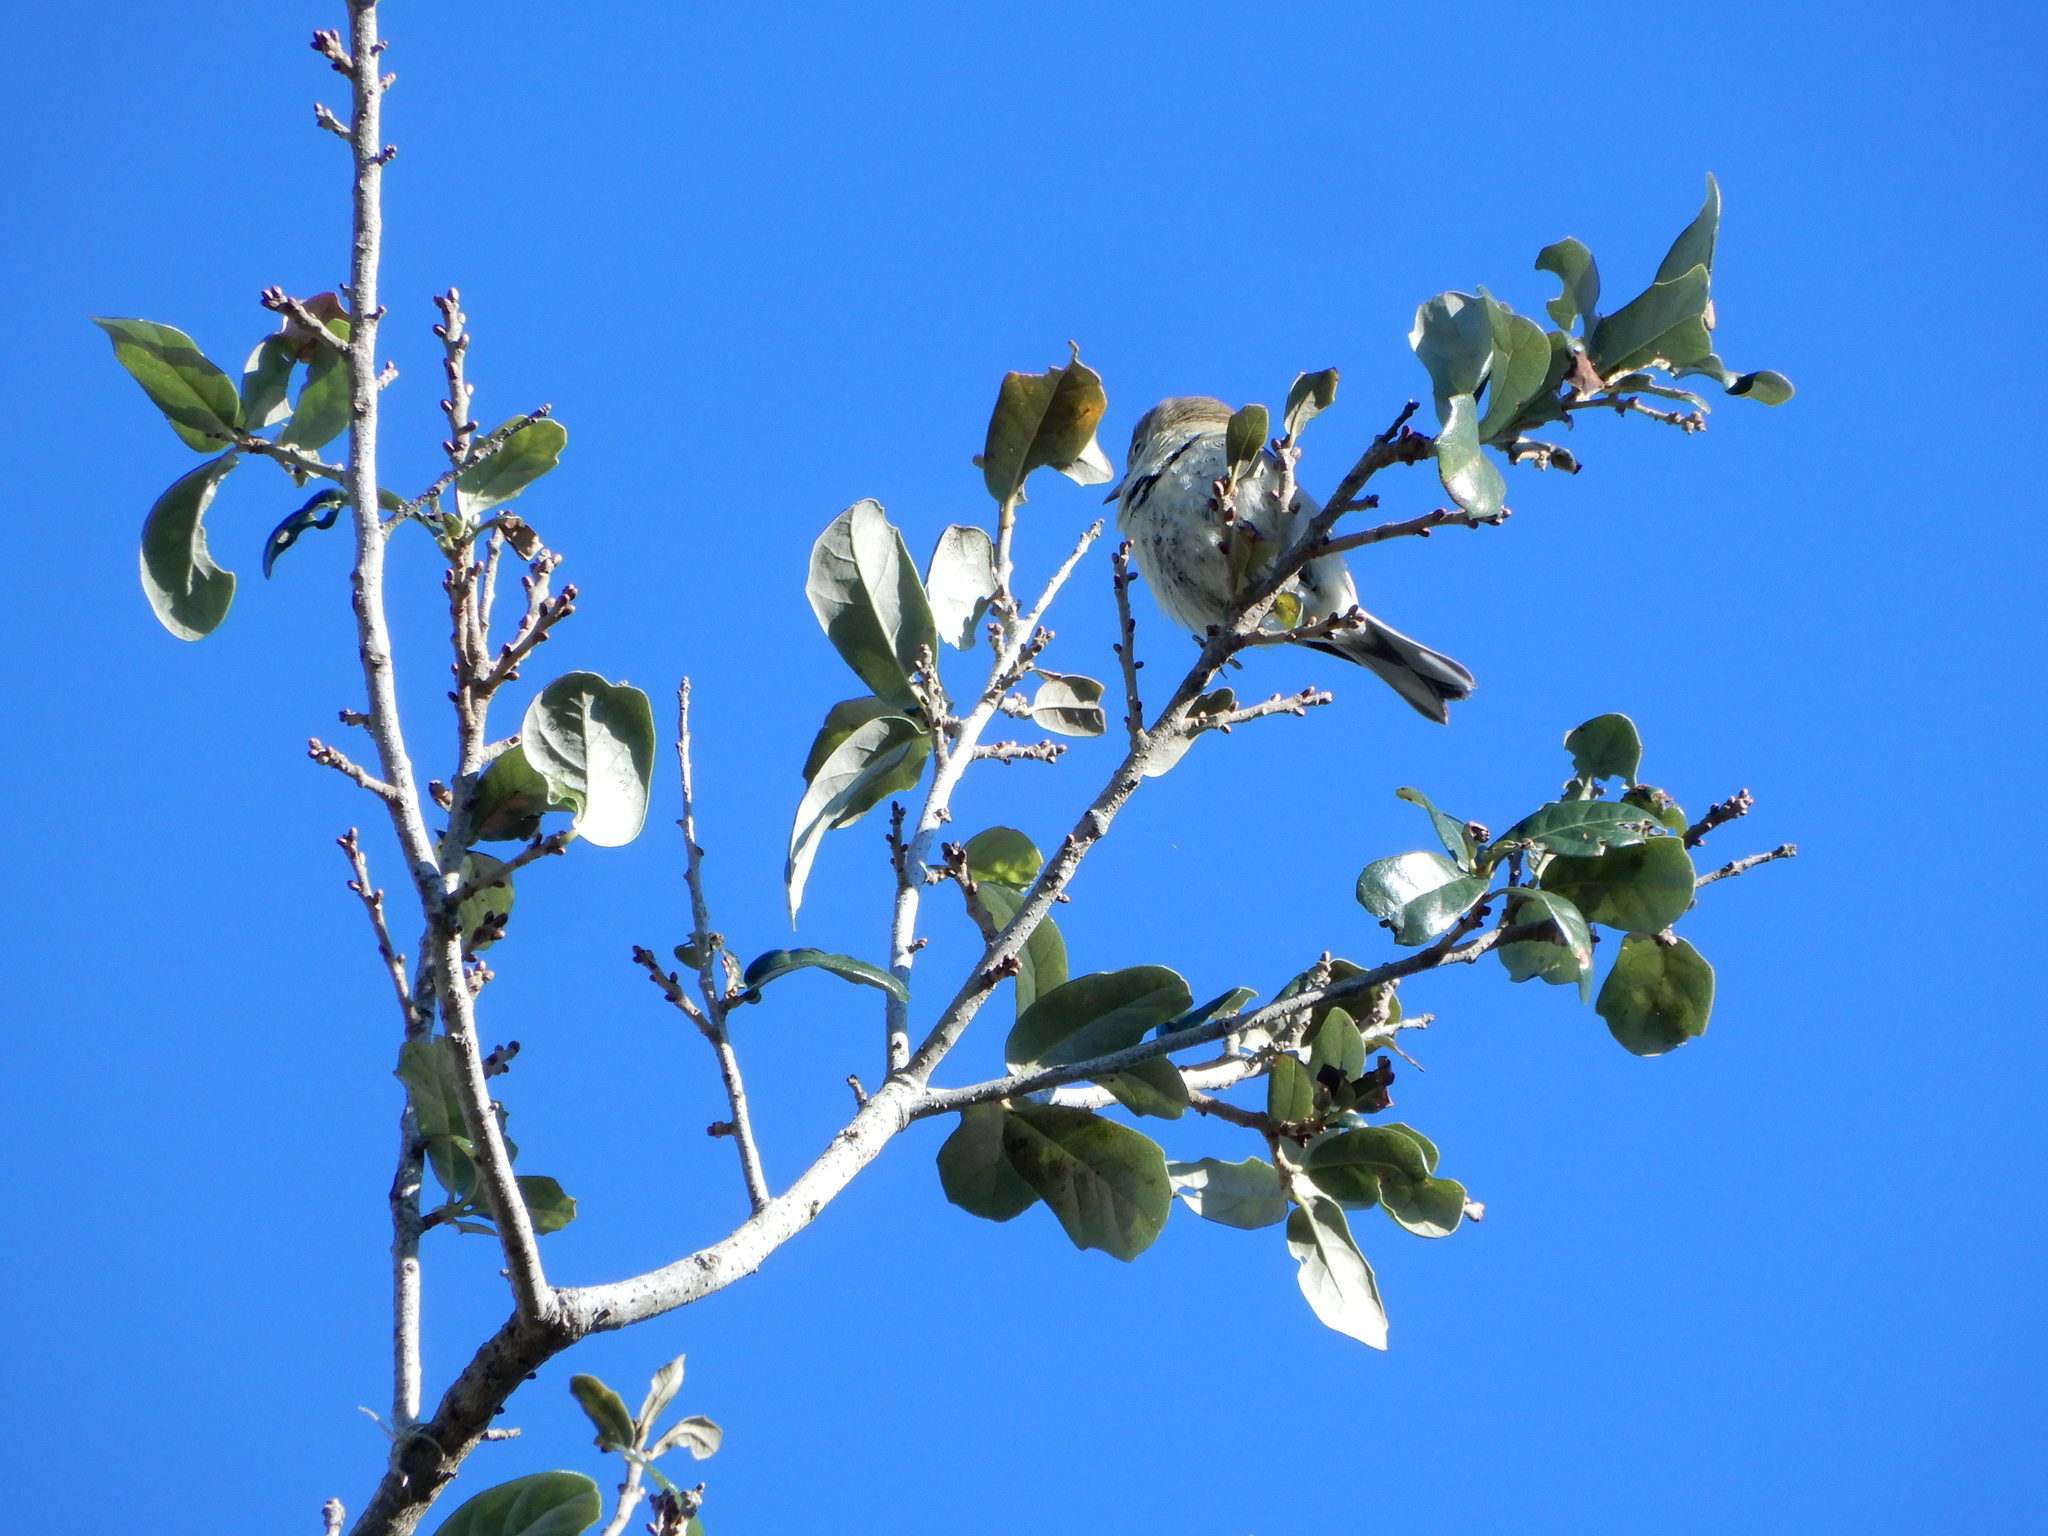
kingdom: Animalia
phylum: Chordata
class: Aves
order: Passeriformes
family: Parulidae
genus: Setophaga
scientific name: Setophaga pinus
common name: Pine warbler
